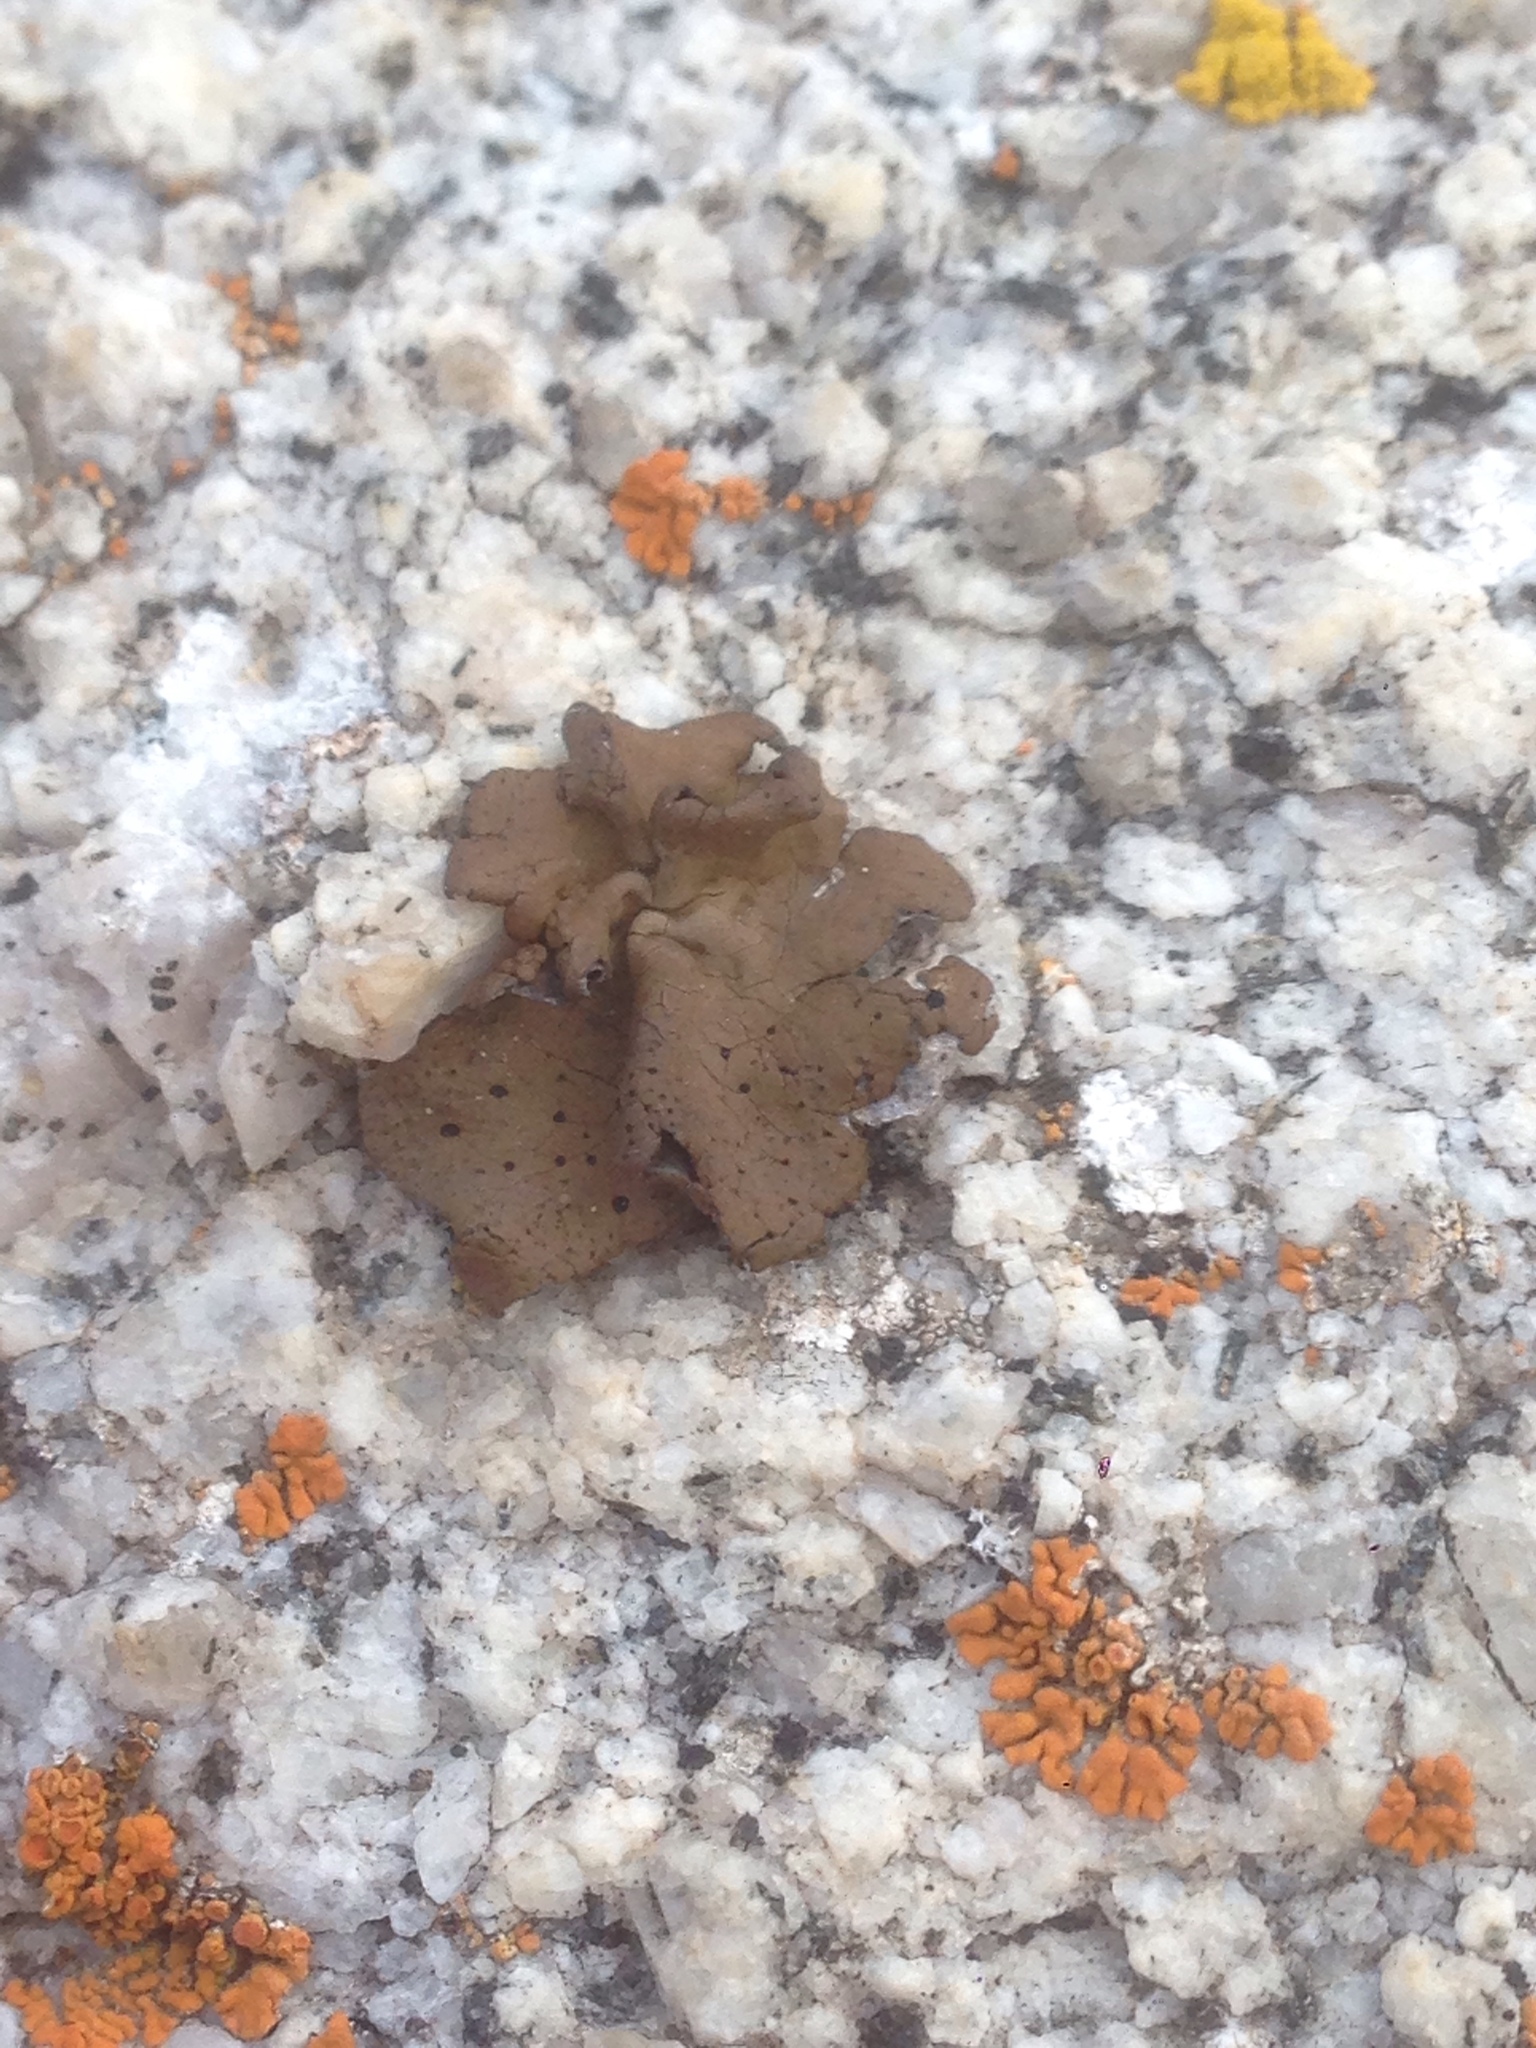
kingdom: Fungi
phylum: Ascomycota
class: Lecanoromycetes
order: Umbilicariales
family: Umbilicariaceae
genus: Umbilicaria
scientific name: Umbilicaria phaea
